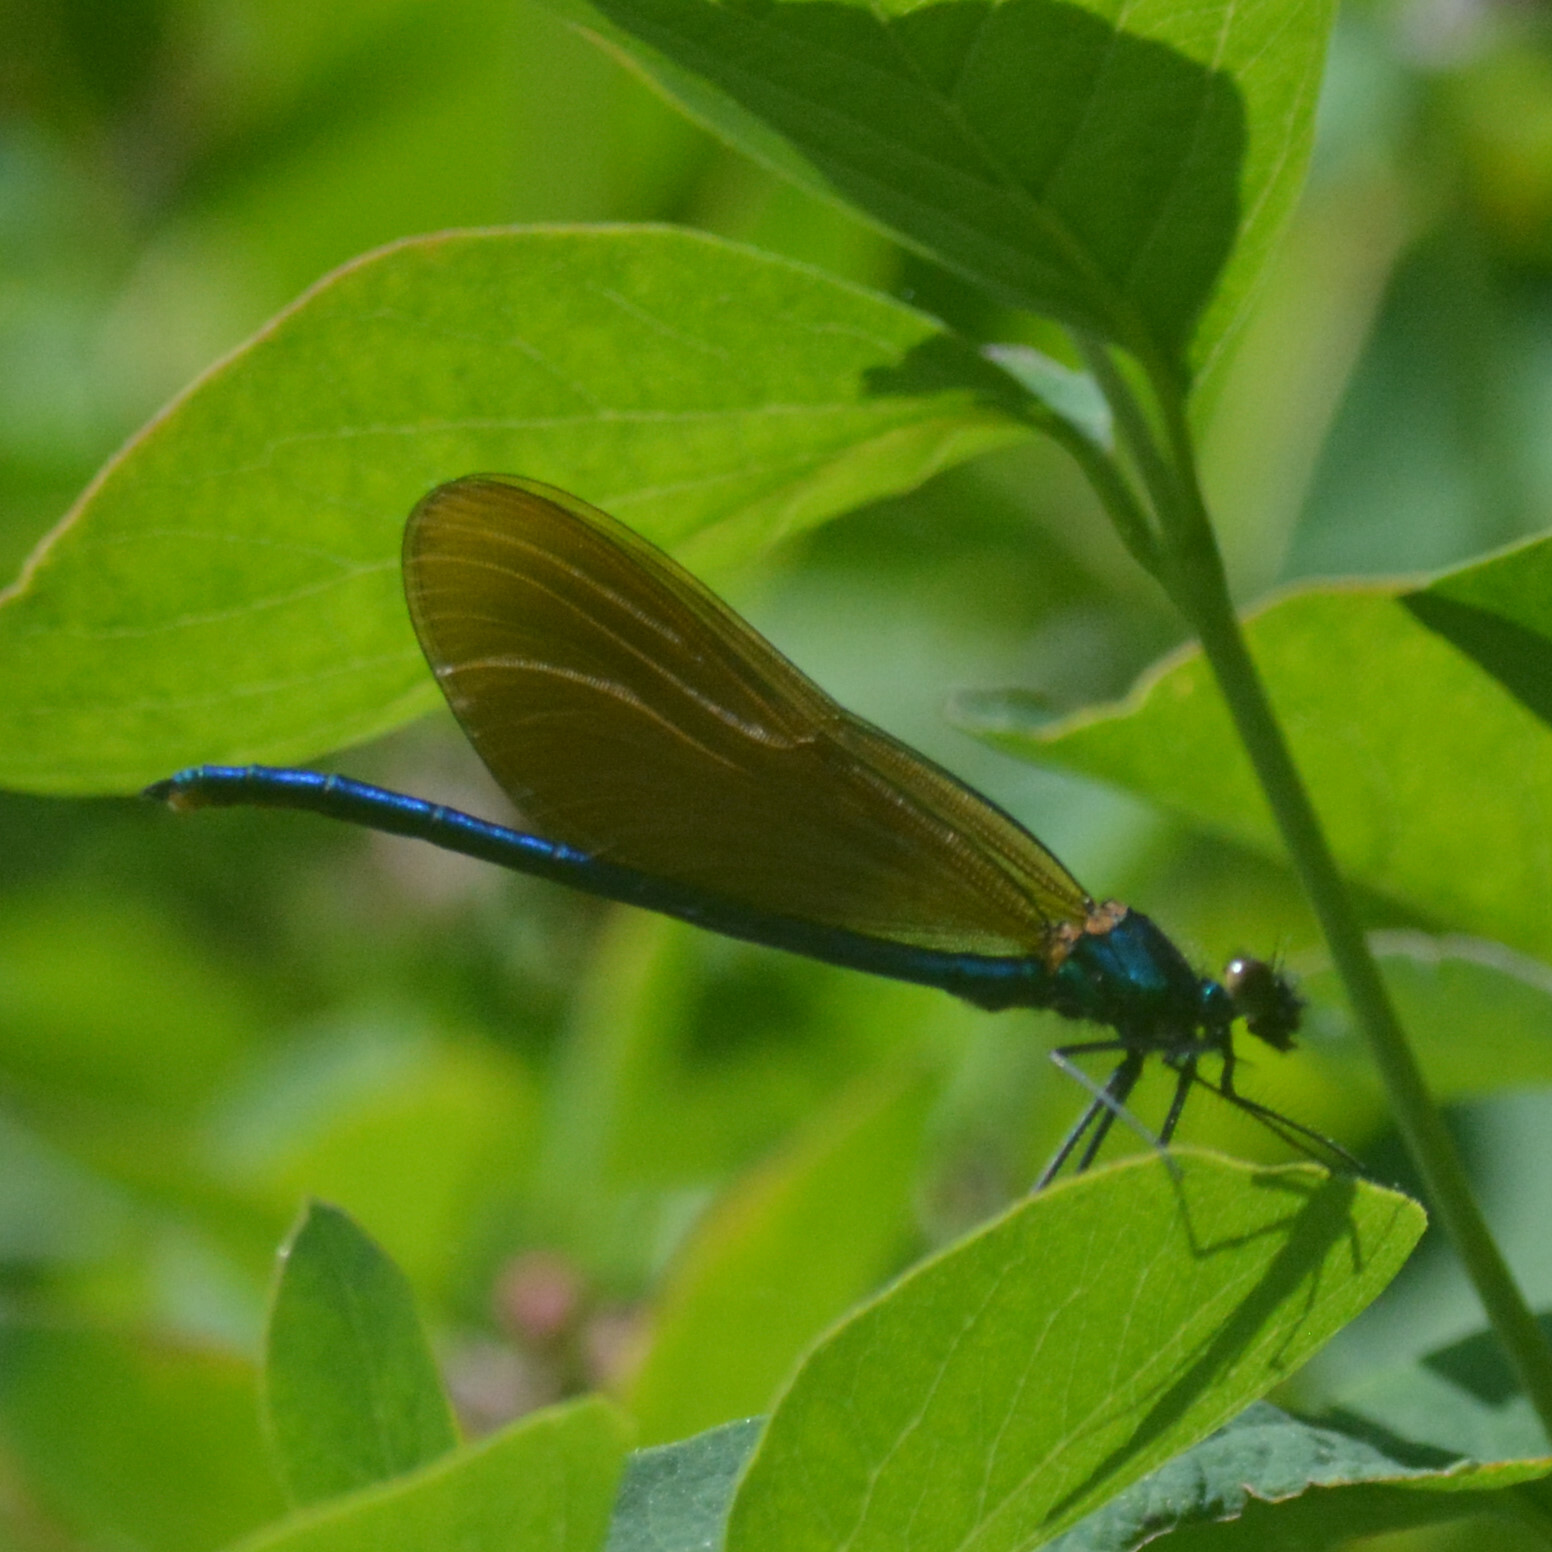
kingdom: Animalia
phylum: Arthropoda
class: Insecta
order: Odonata
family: Calopterygidae
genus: Calopteryx
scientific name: Calopteryx virgo
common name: Beautiful demoiselle
